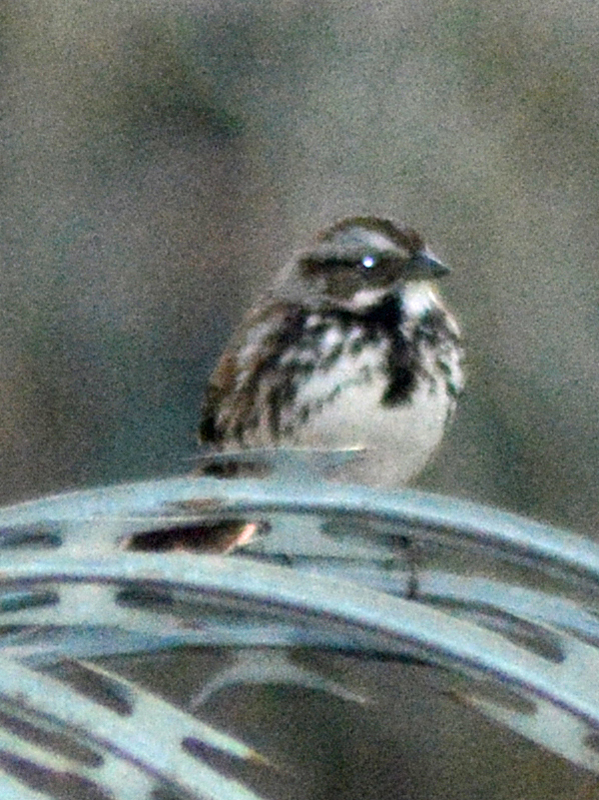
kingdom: Animalia
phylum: Chordata
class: Aves
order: Passeriformes
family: Passerellidae
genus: Melospiza
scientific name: Melospiza melodia
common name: Song sparrow
